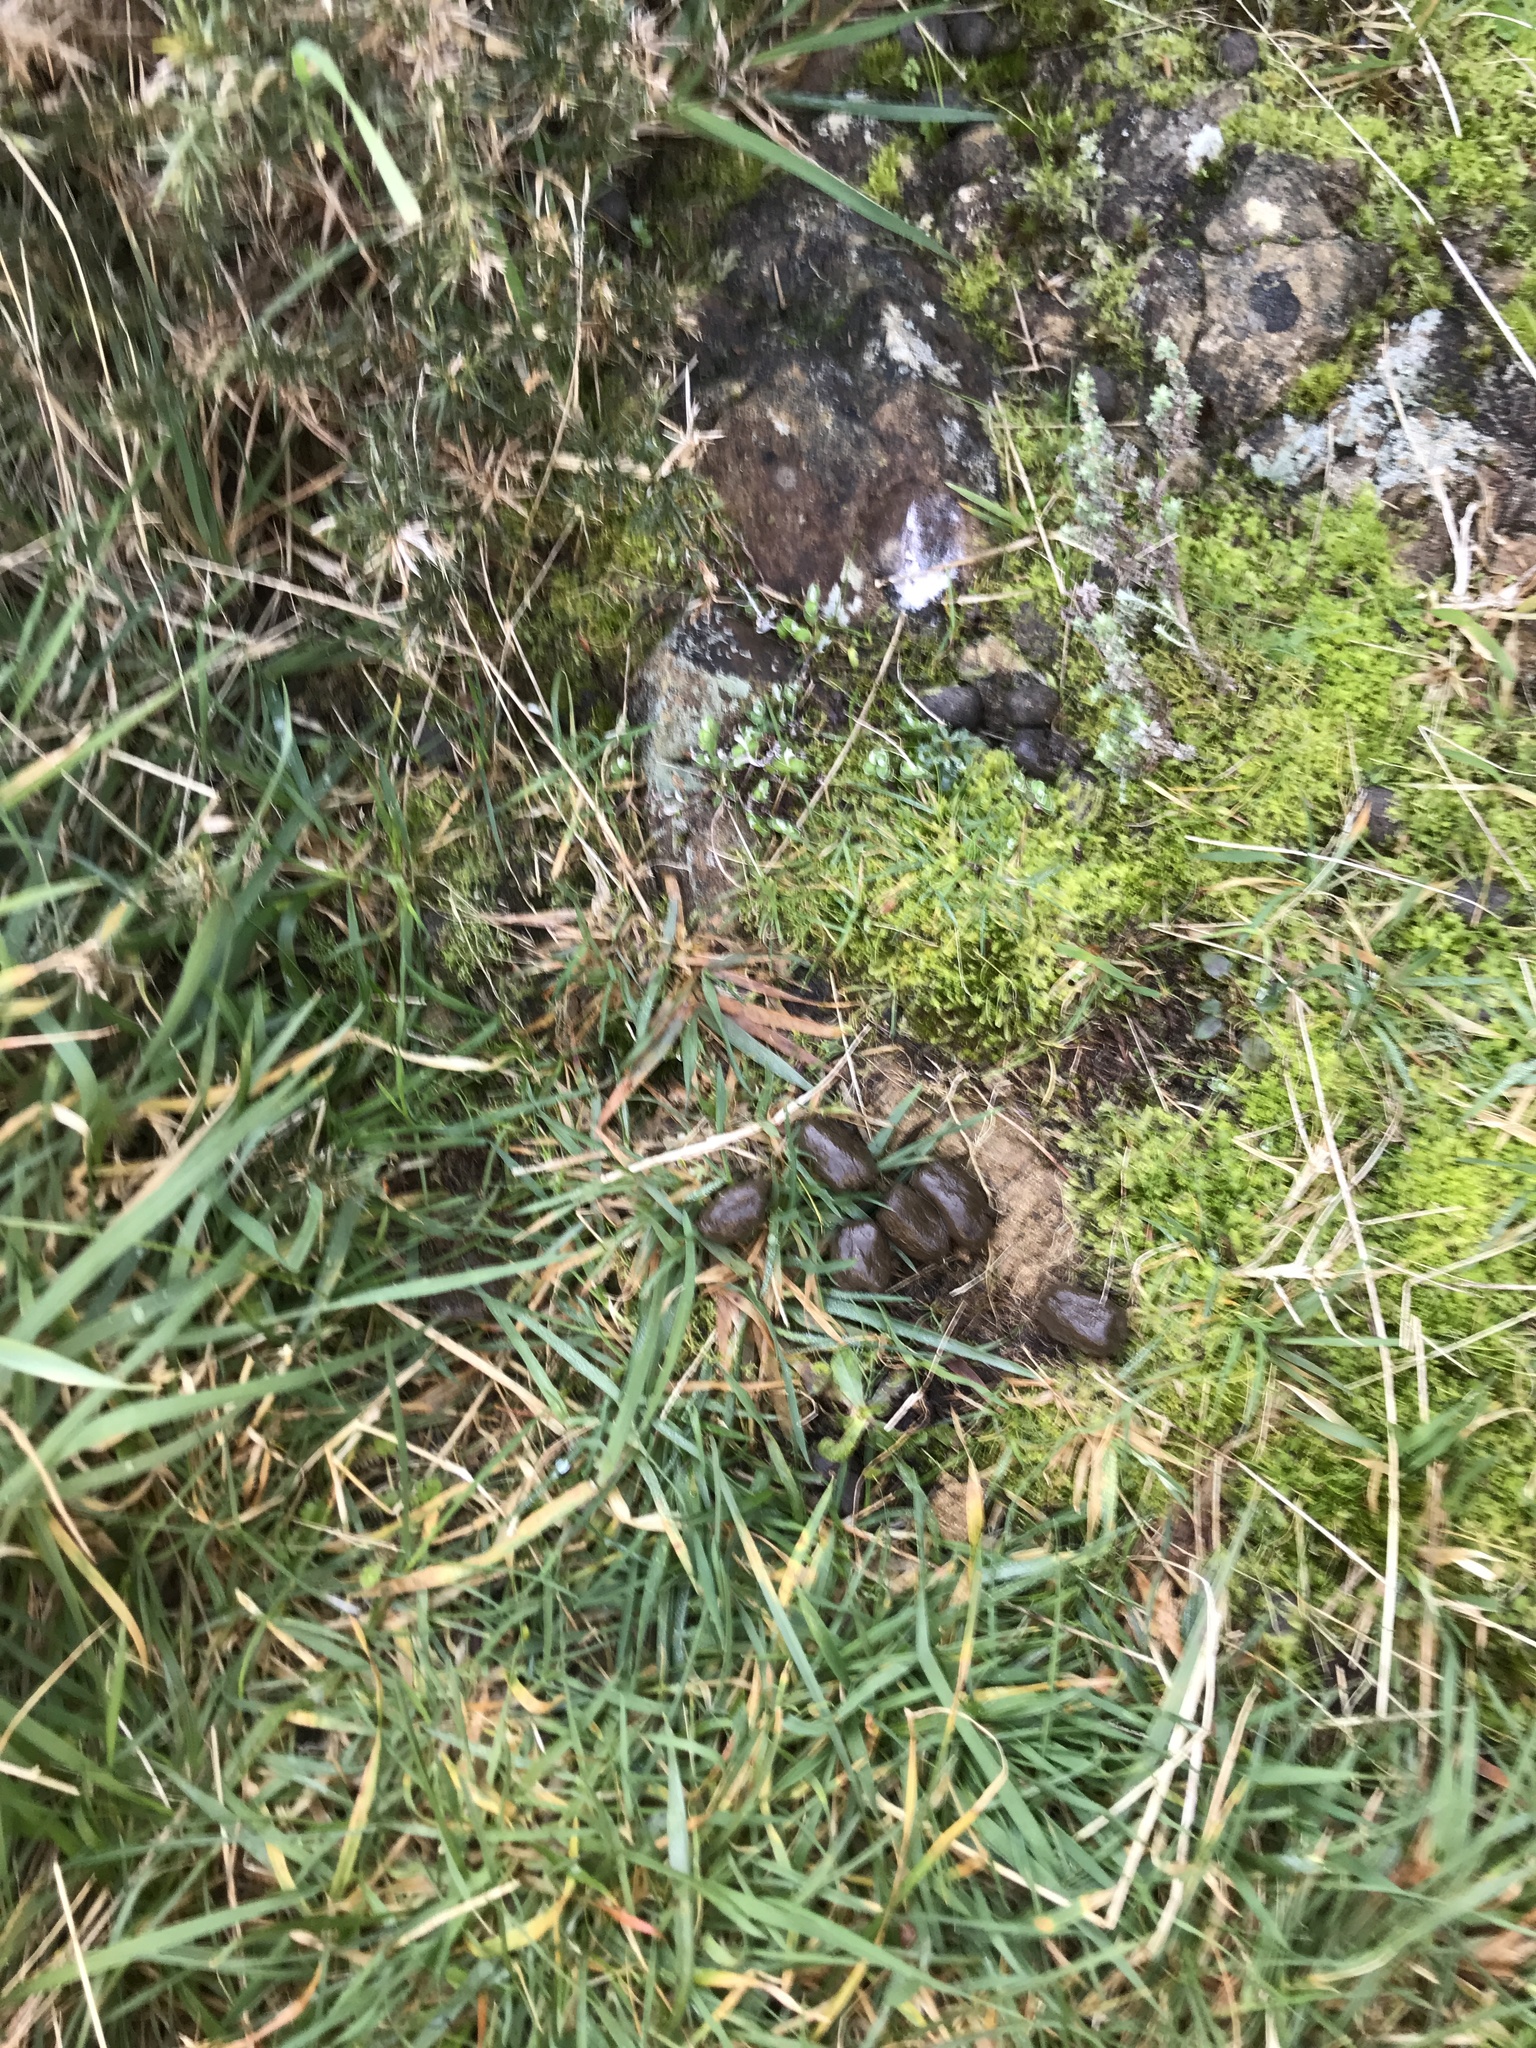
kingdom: Animalia
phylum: Chordata
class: Mammalia
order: Diprotodontia
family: Phalangeridae
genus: Trichosurus
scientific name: Trichosurus vulpecula
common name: Common brushtail
